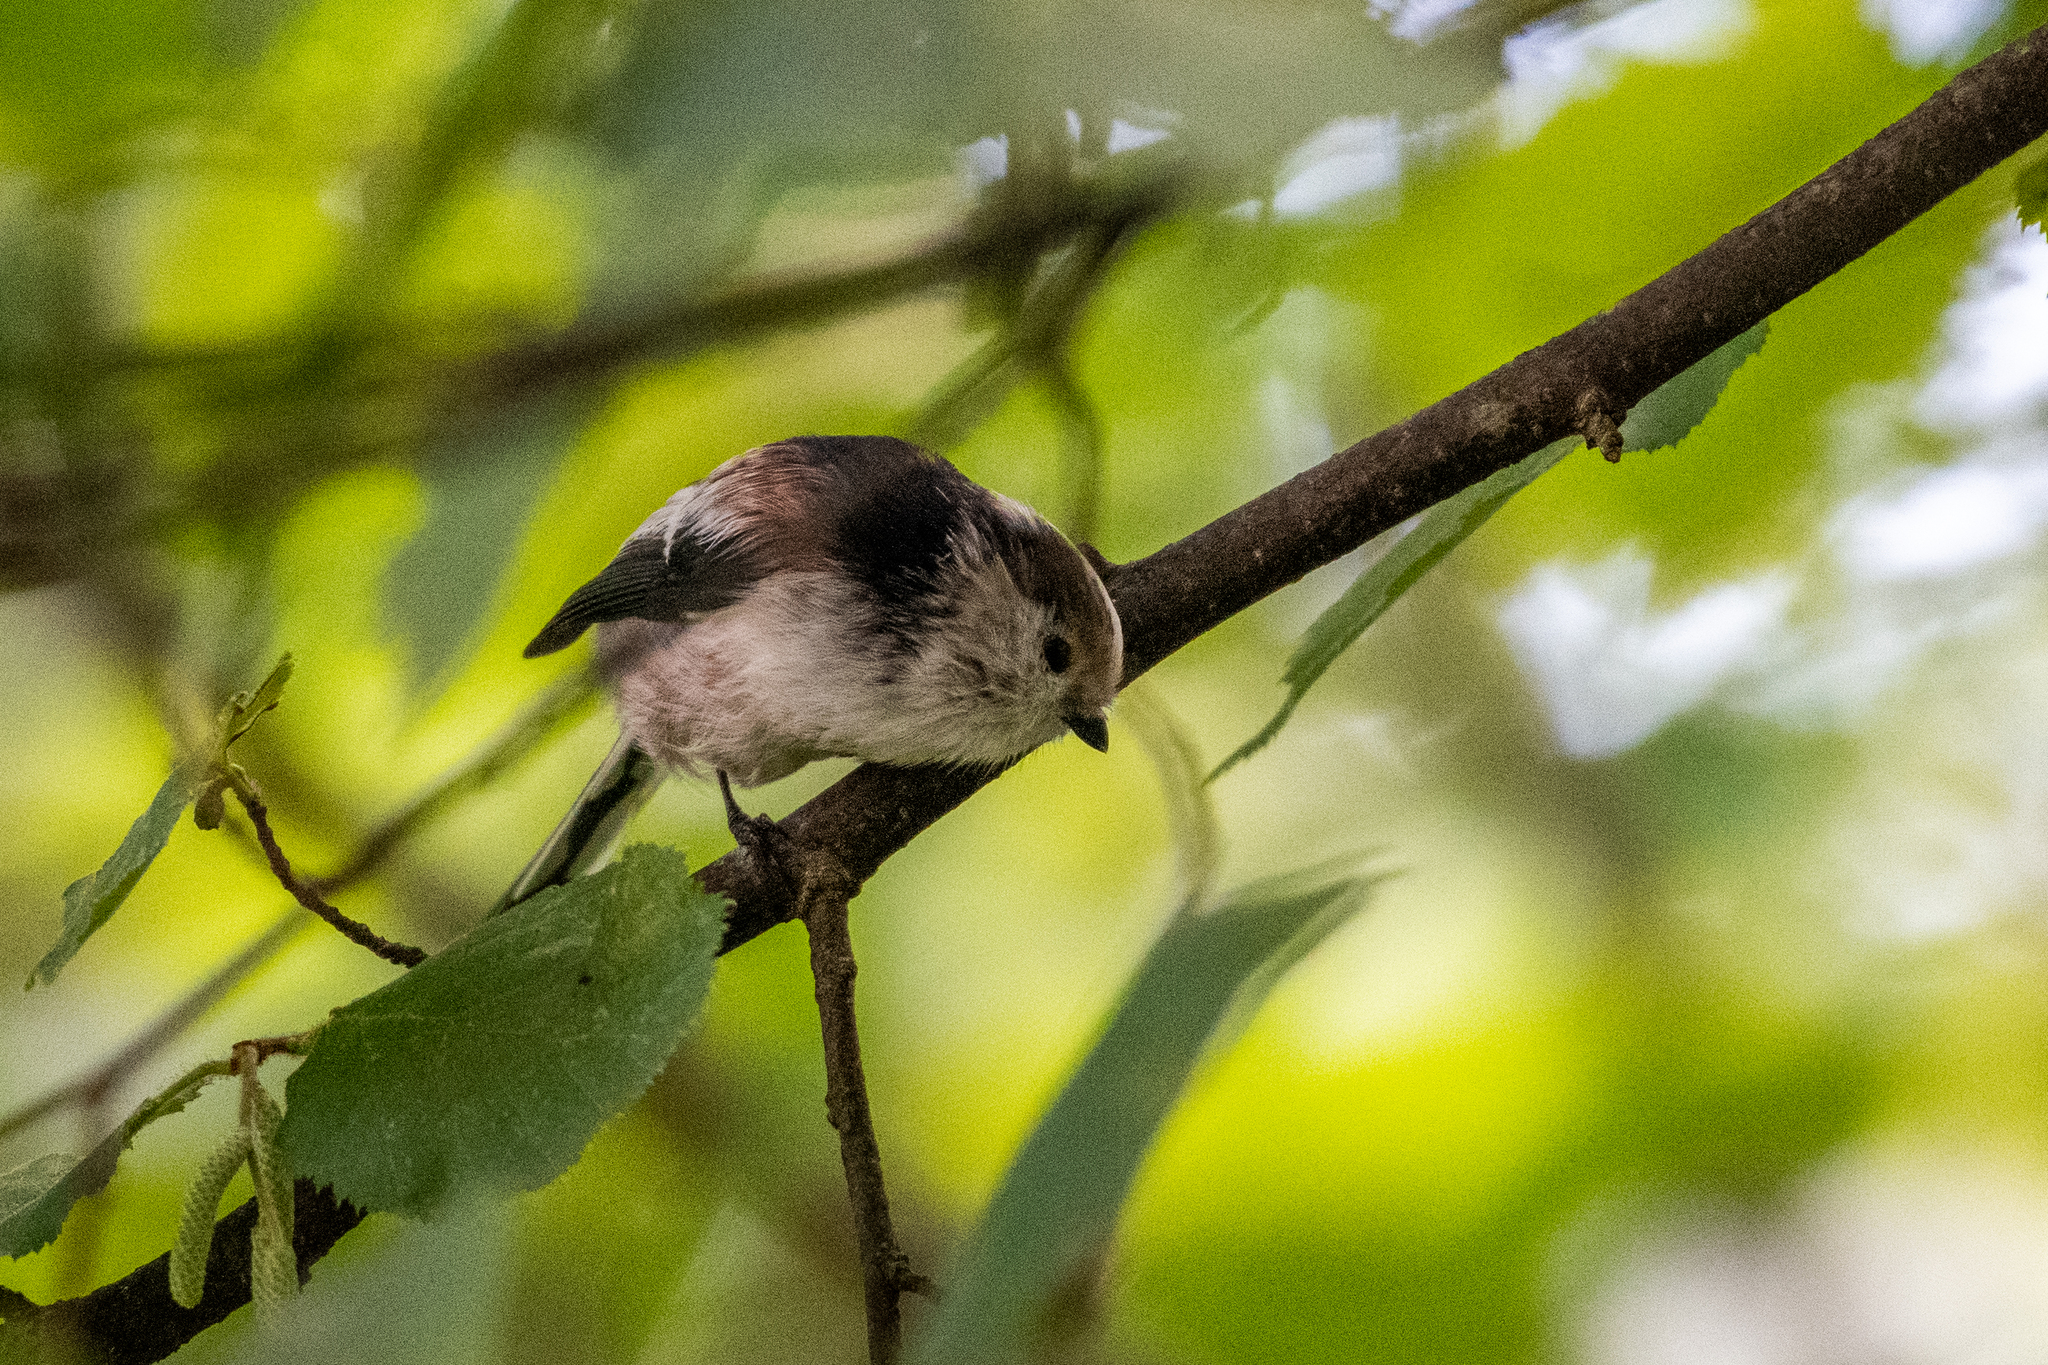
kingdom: Animalia
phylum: Chordata
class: Aves
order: Passeriformes
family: Aegithalidae
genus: Aegithalos
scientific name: Aegithalos caudatus
